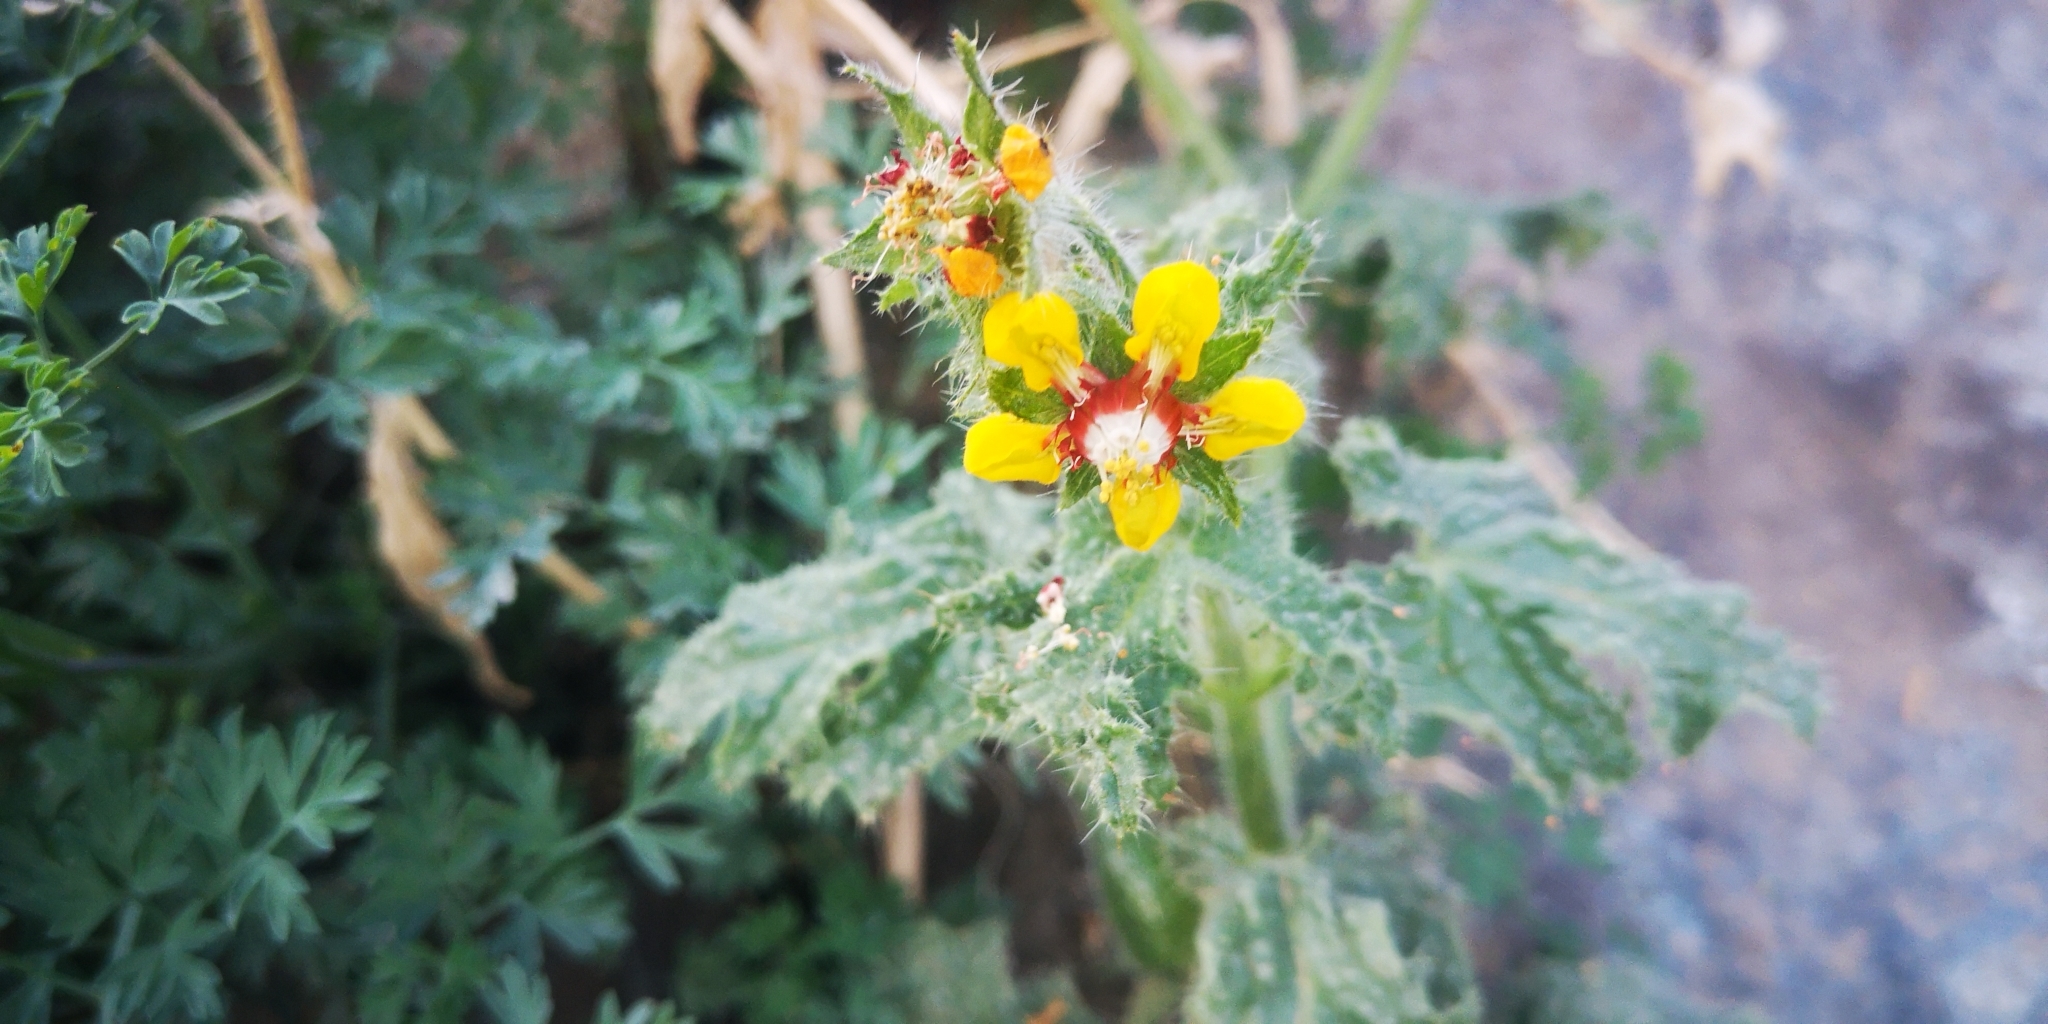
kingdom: Plantae
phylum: Tracheophyta
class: Magnoliopsida
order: Cornales
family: Loasaceae
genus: Loasa
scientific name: Loasa tricolor
